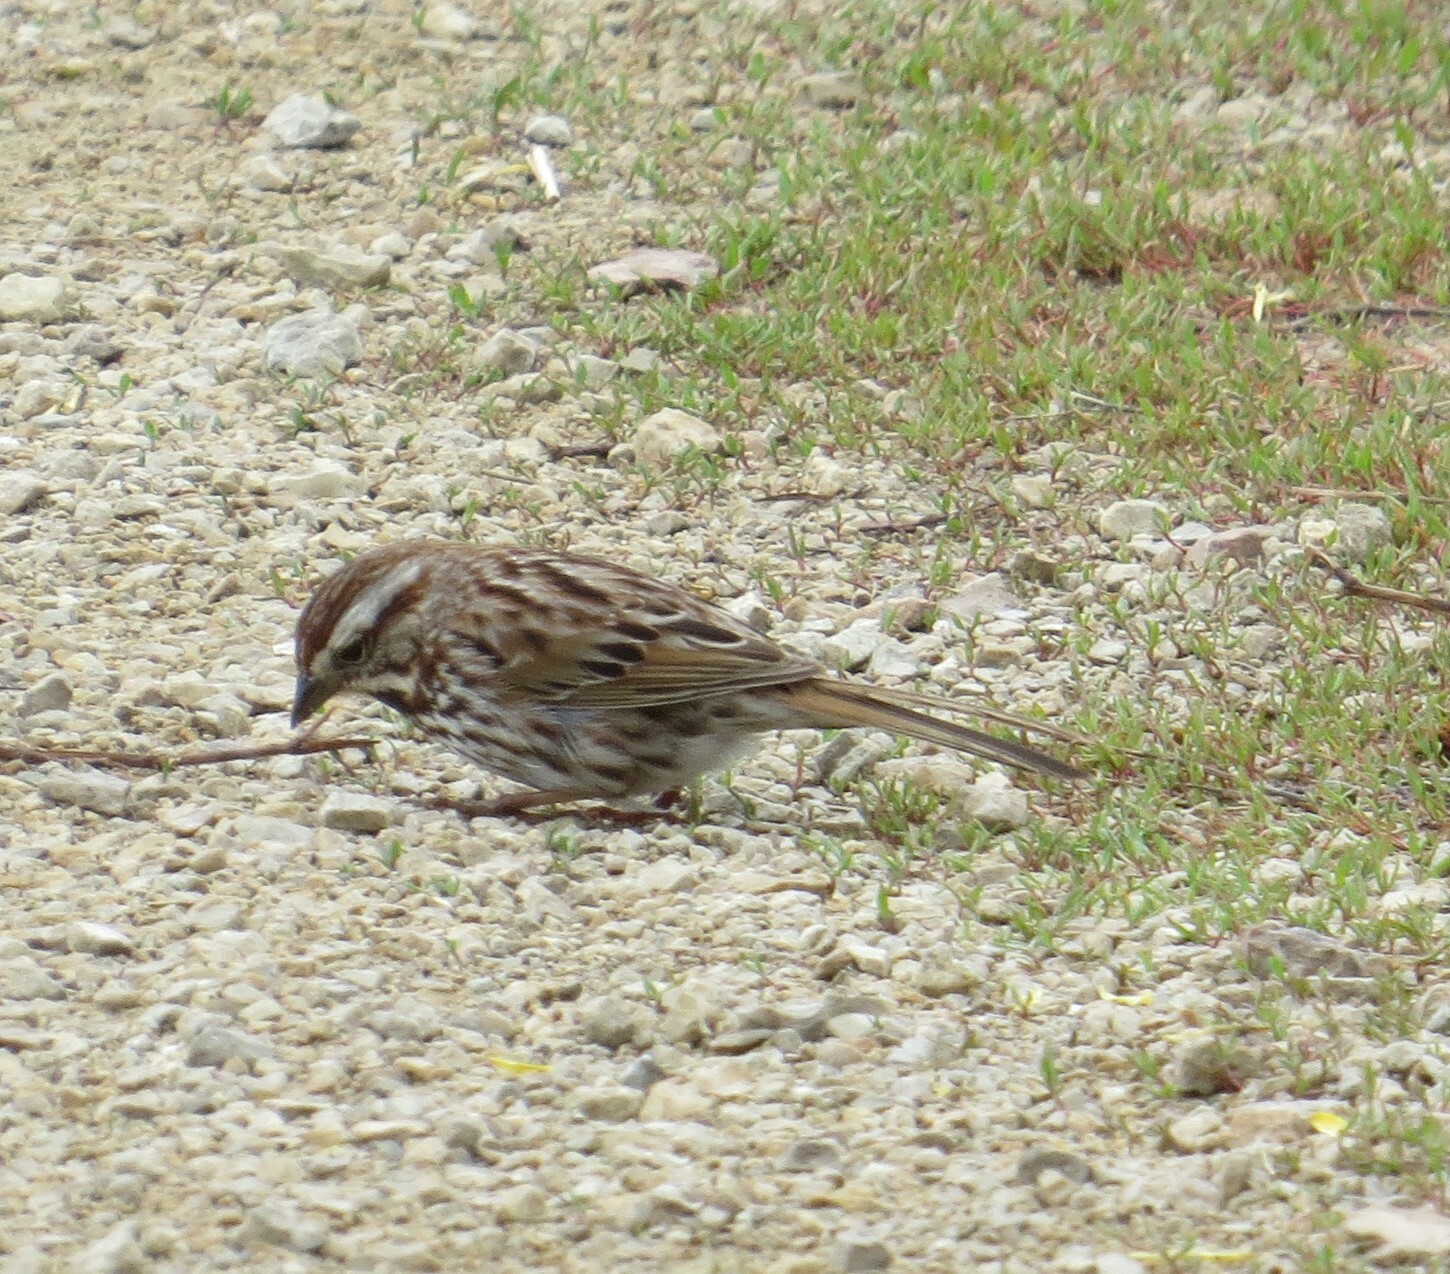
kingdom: Animalia
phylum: Chordata
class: Aves
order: Passeriformes
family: Passerellidae
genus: Melospiza
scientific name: Melospiza melodia
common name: Song sparrow
